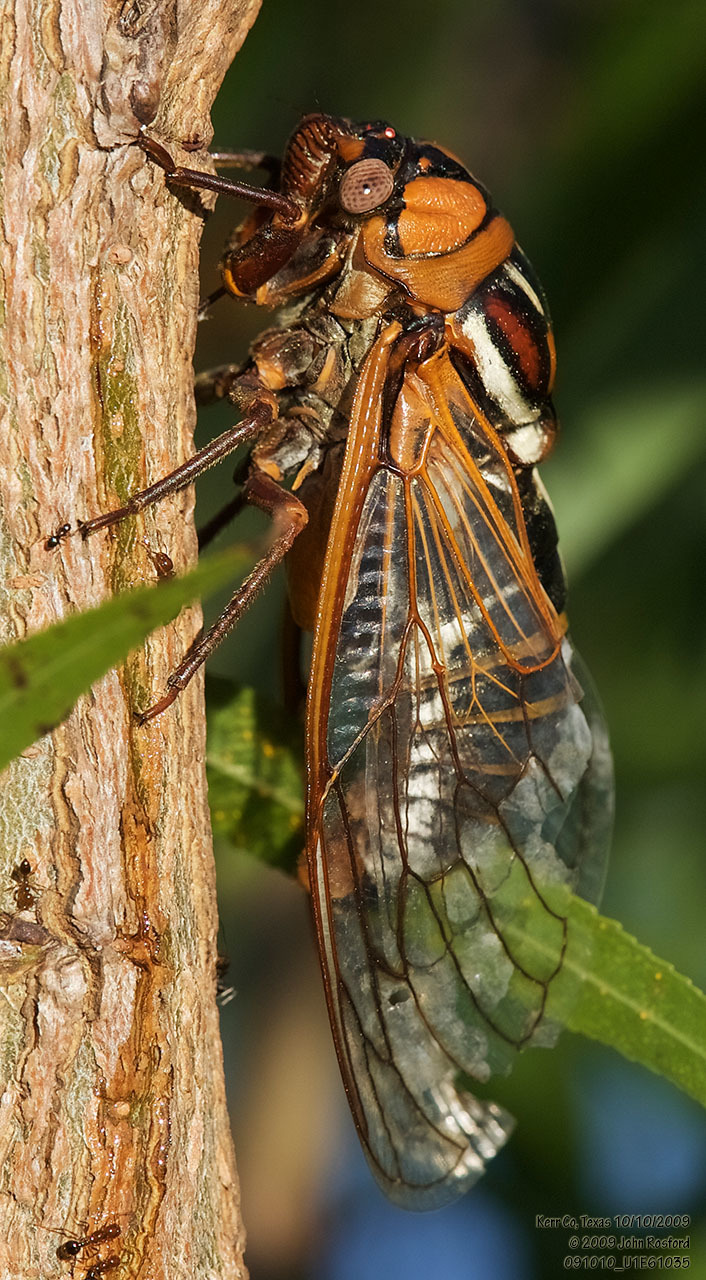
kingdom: Animalia
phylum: Arthropoda
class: Insecta
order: Hemiptera
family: Cicadidae
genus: Megatibicen
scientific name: Megatibicen dorsatus
